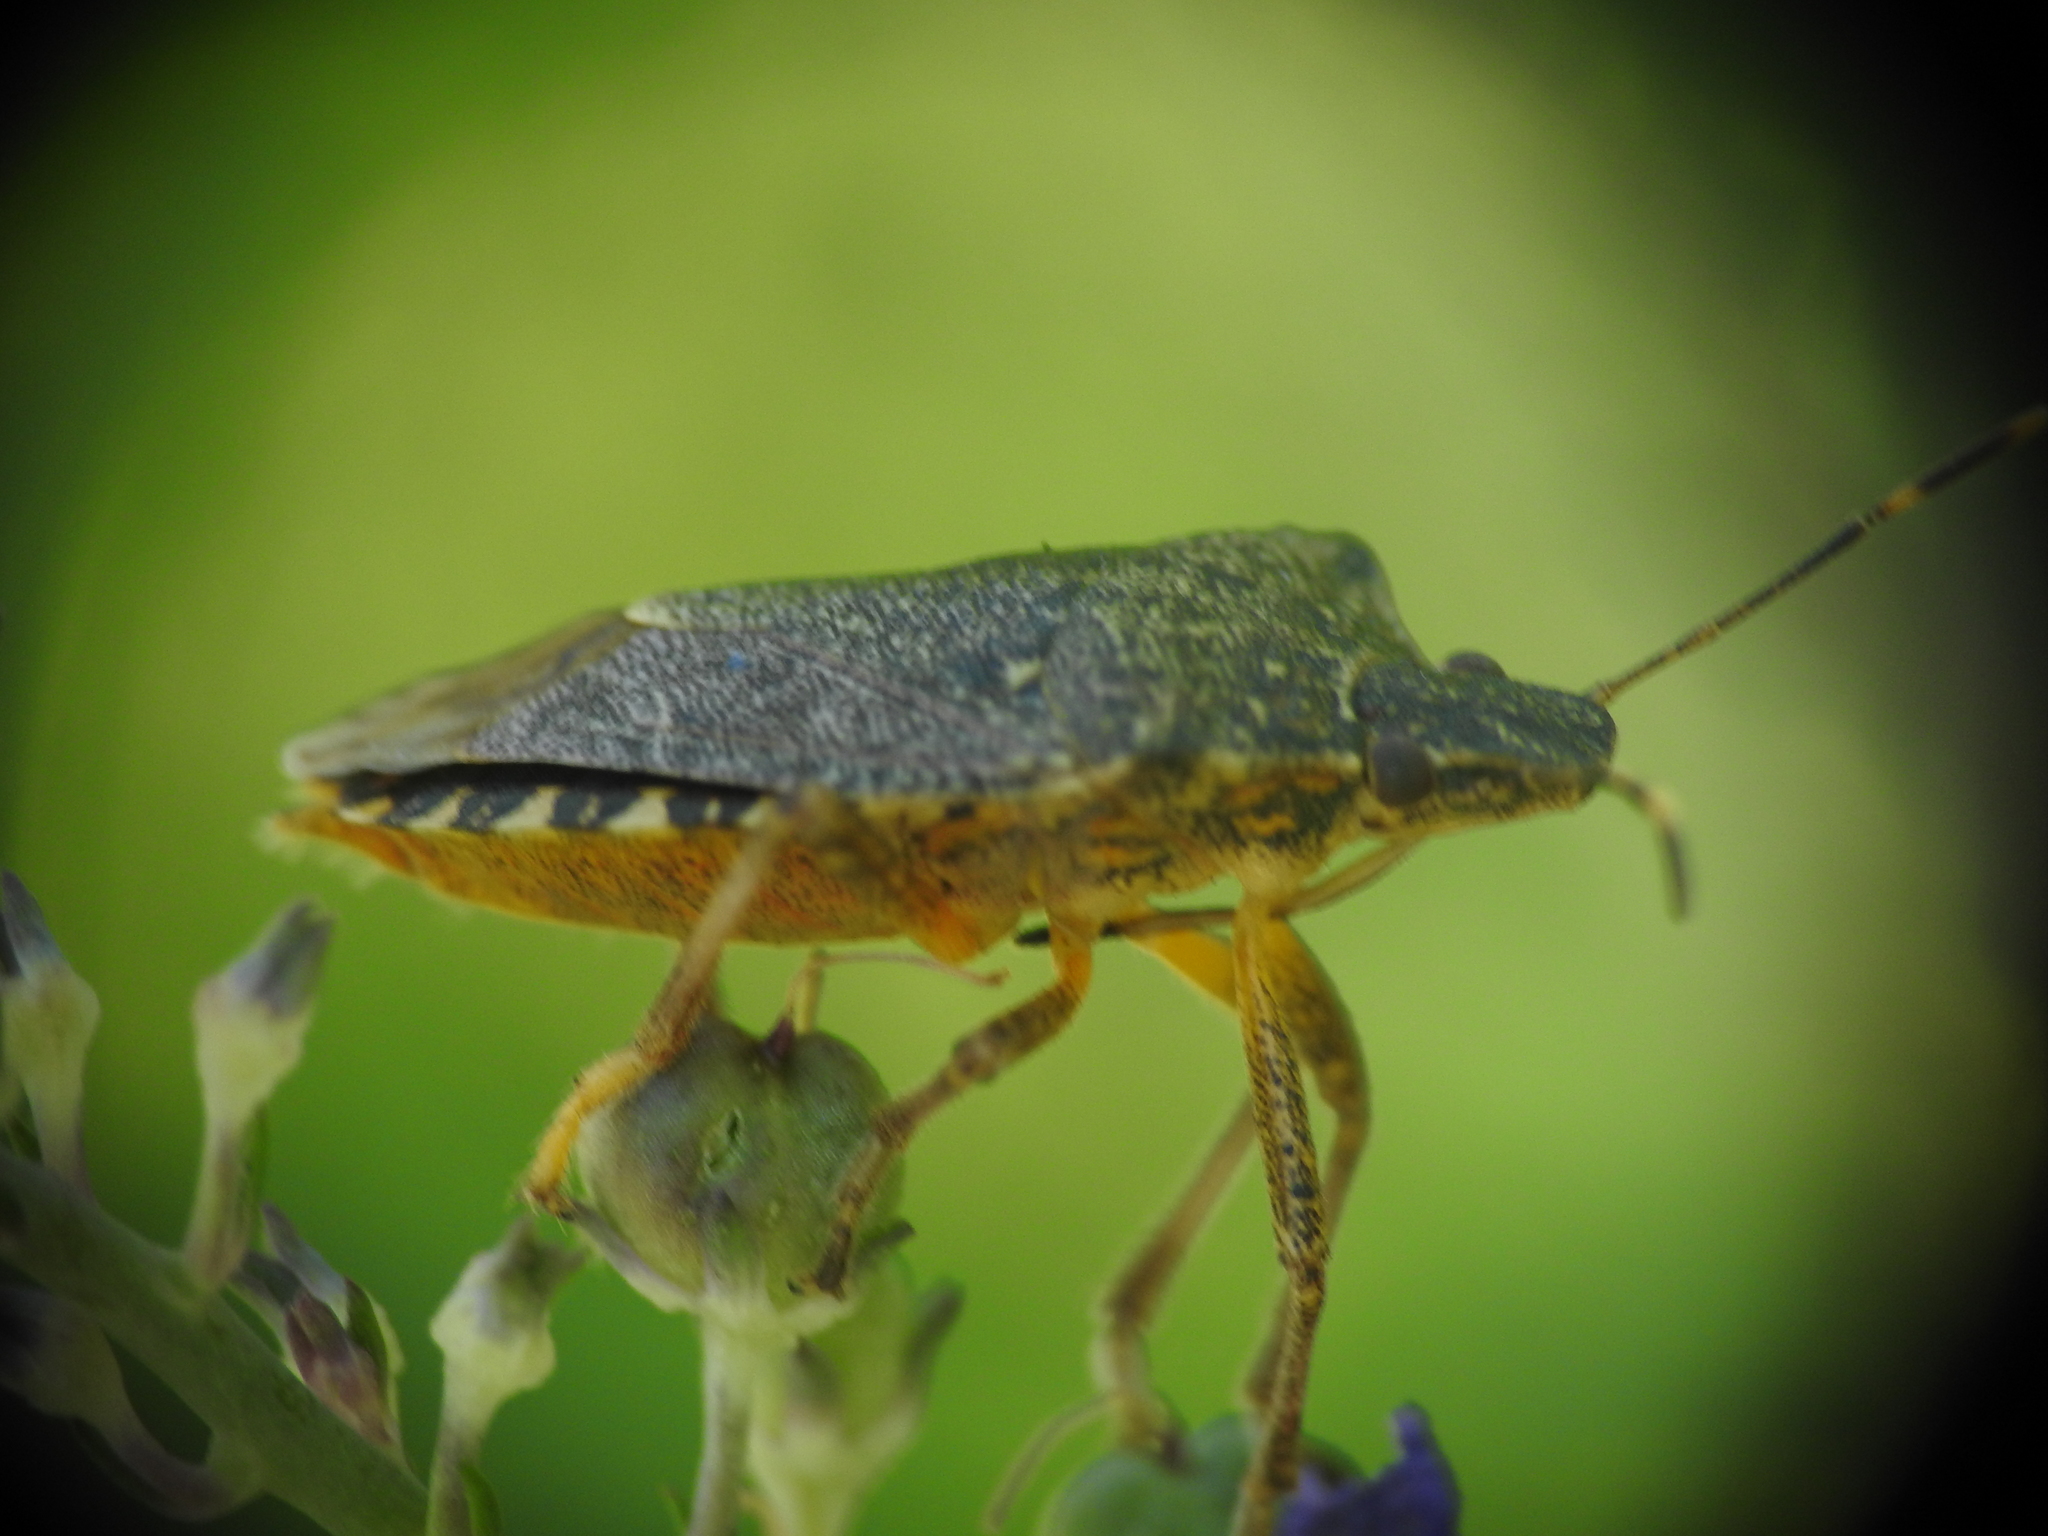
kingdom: Animalia
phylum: Arthropoda
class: Insecta
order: Hemiptera
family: Pentatomidae
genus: Halyomorpha
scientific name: Halyomorpha halys
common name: Brown marmorated stink bug
